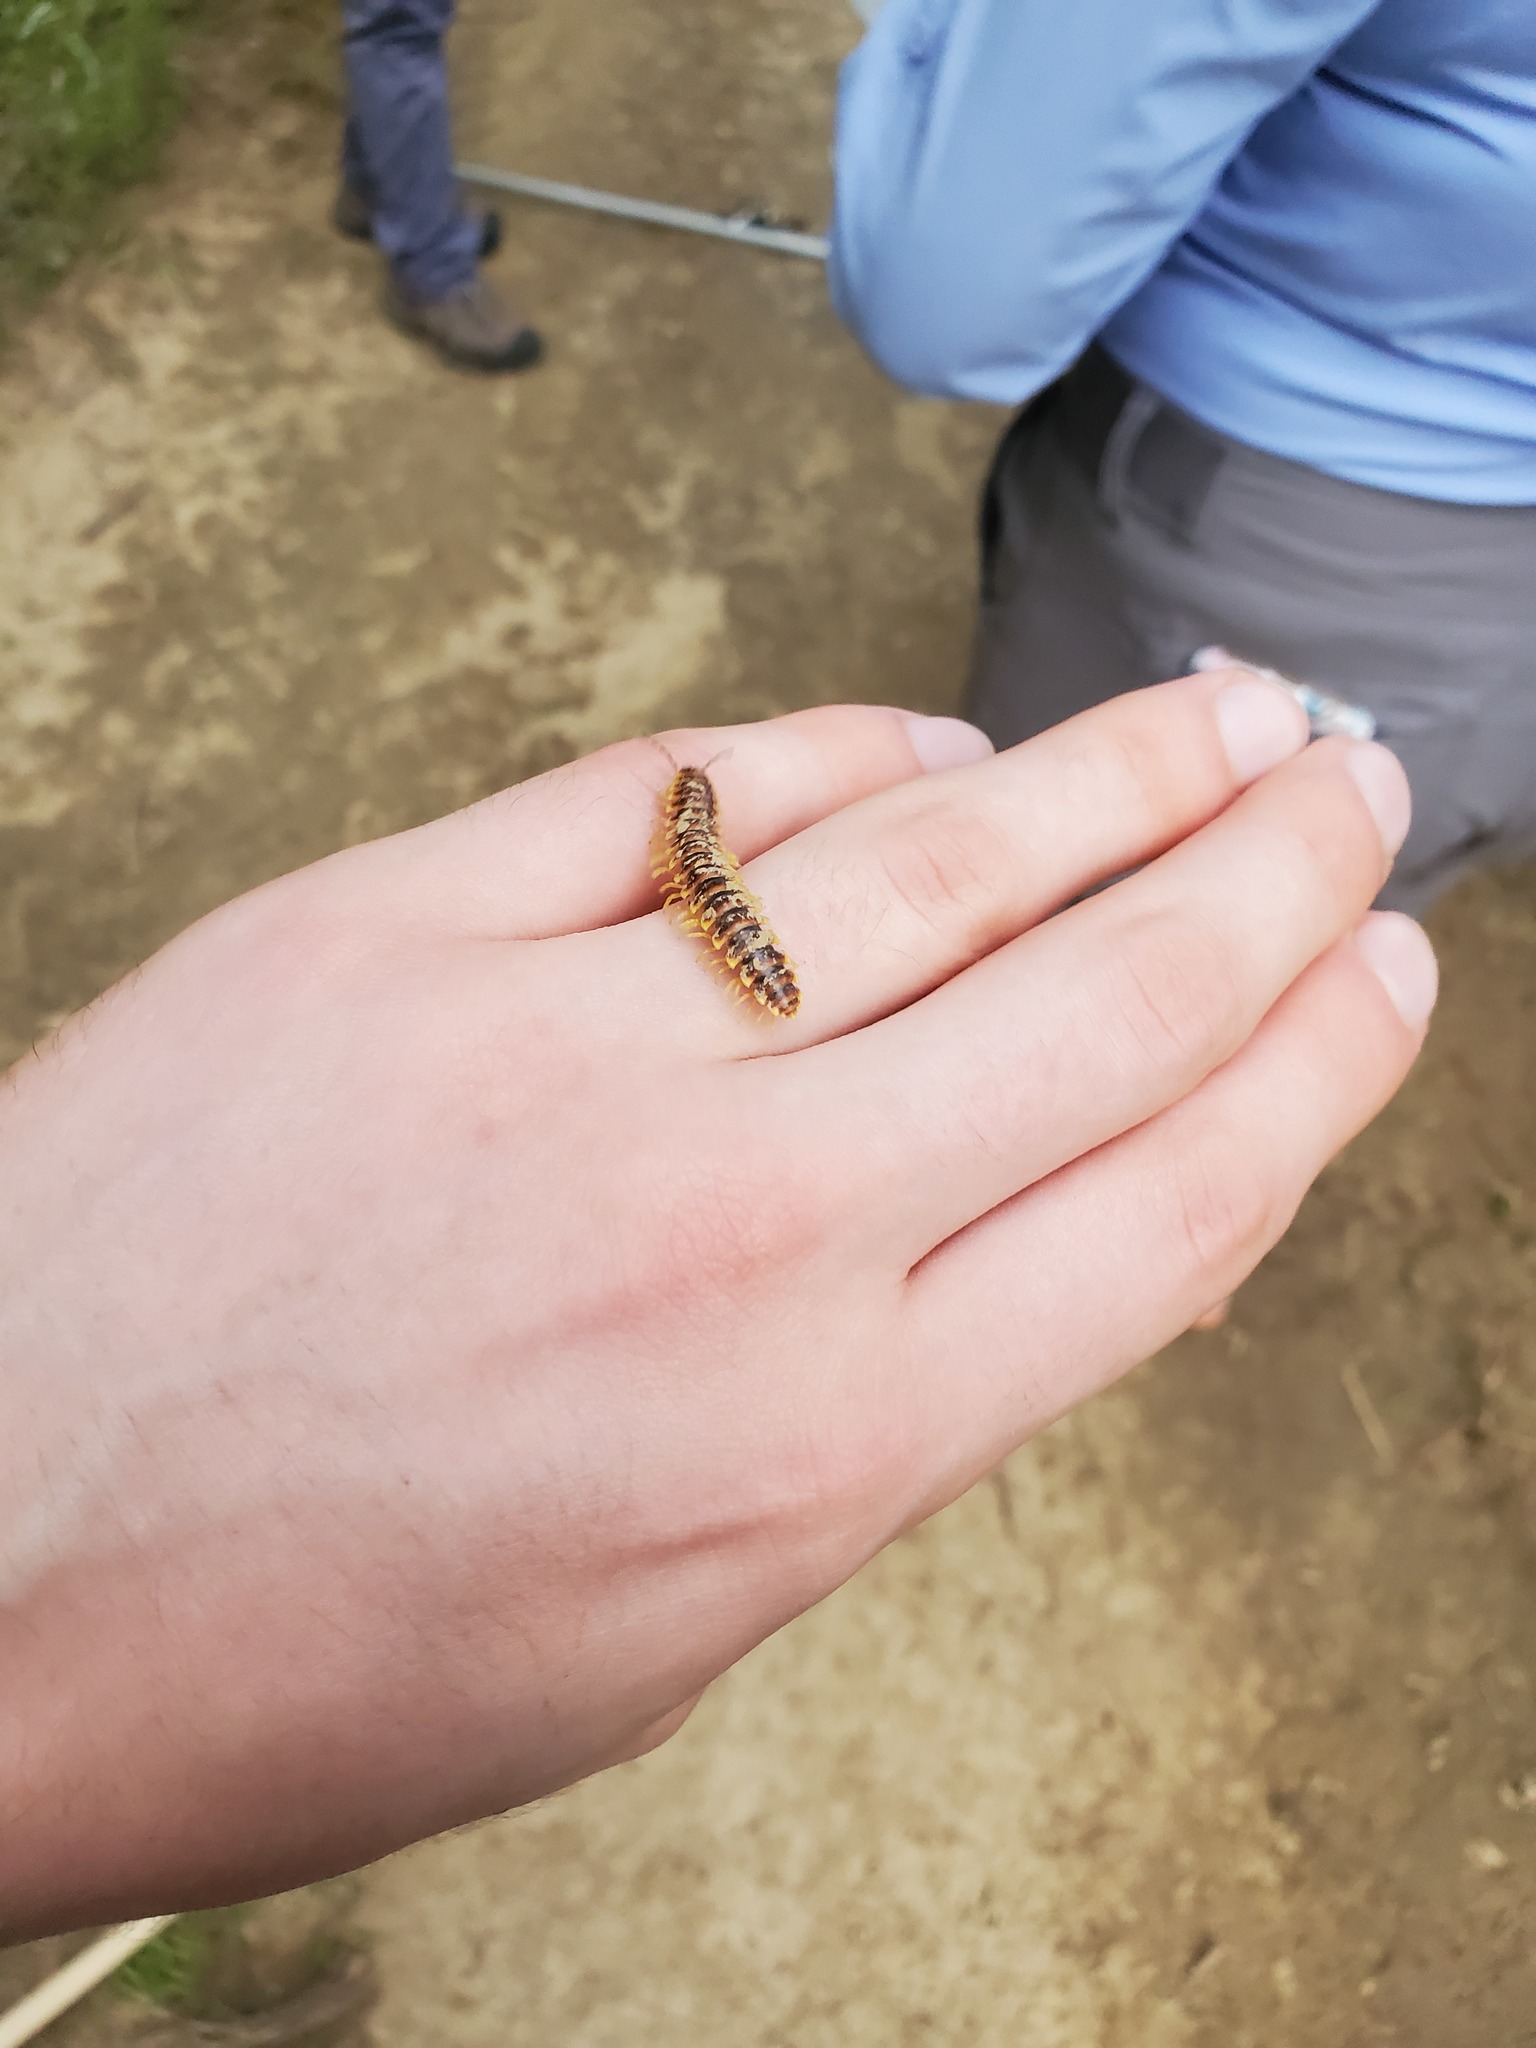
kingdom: Animalia
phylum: Arthropoda
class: Diplopoda
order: Polydesmida
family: Xystodesmidae
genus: Pleuroloma
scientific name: Pleuroloma flavipes
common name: Yellow-legged pleuroloma
